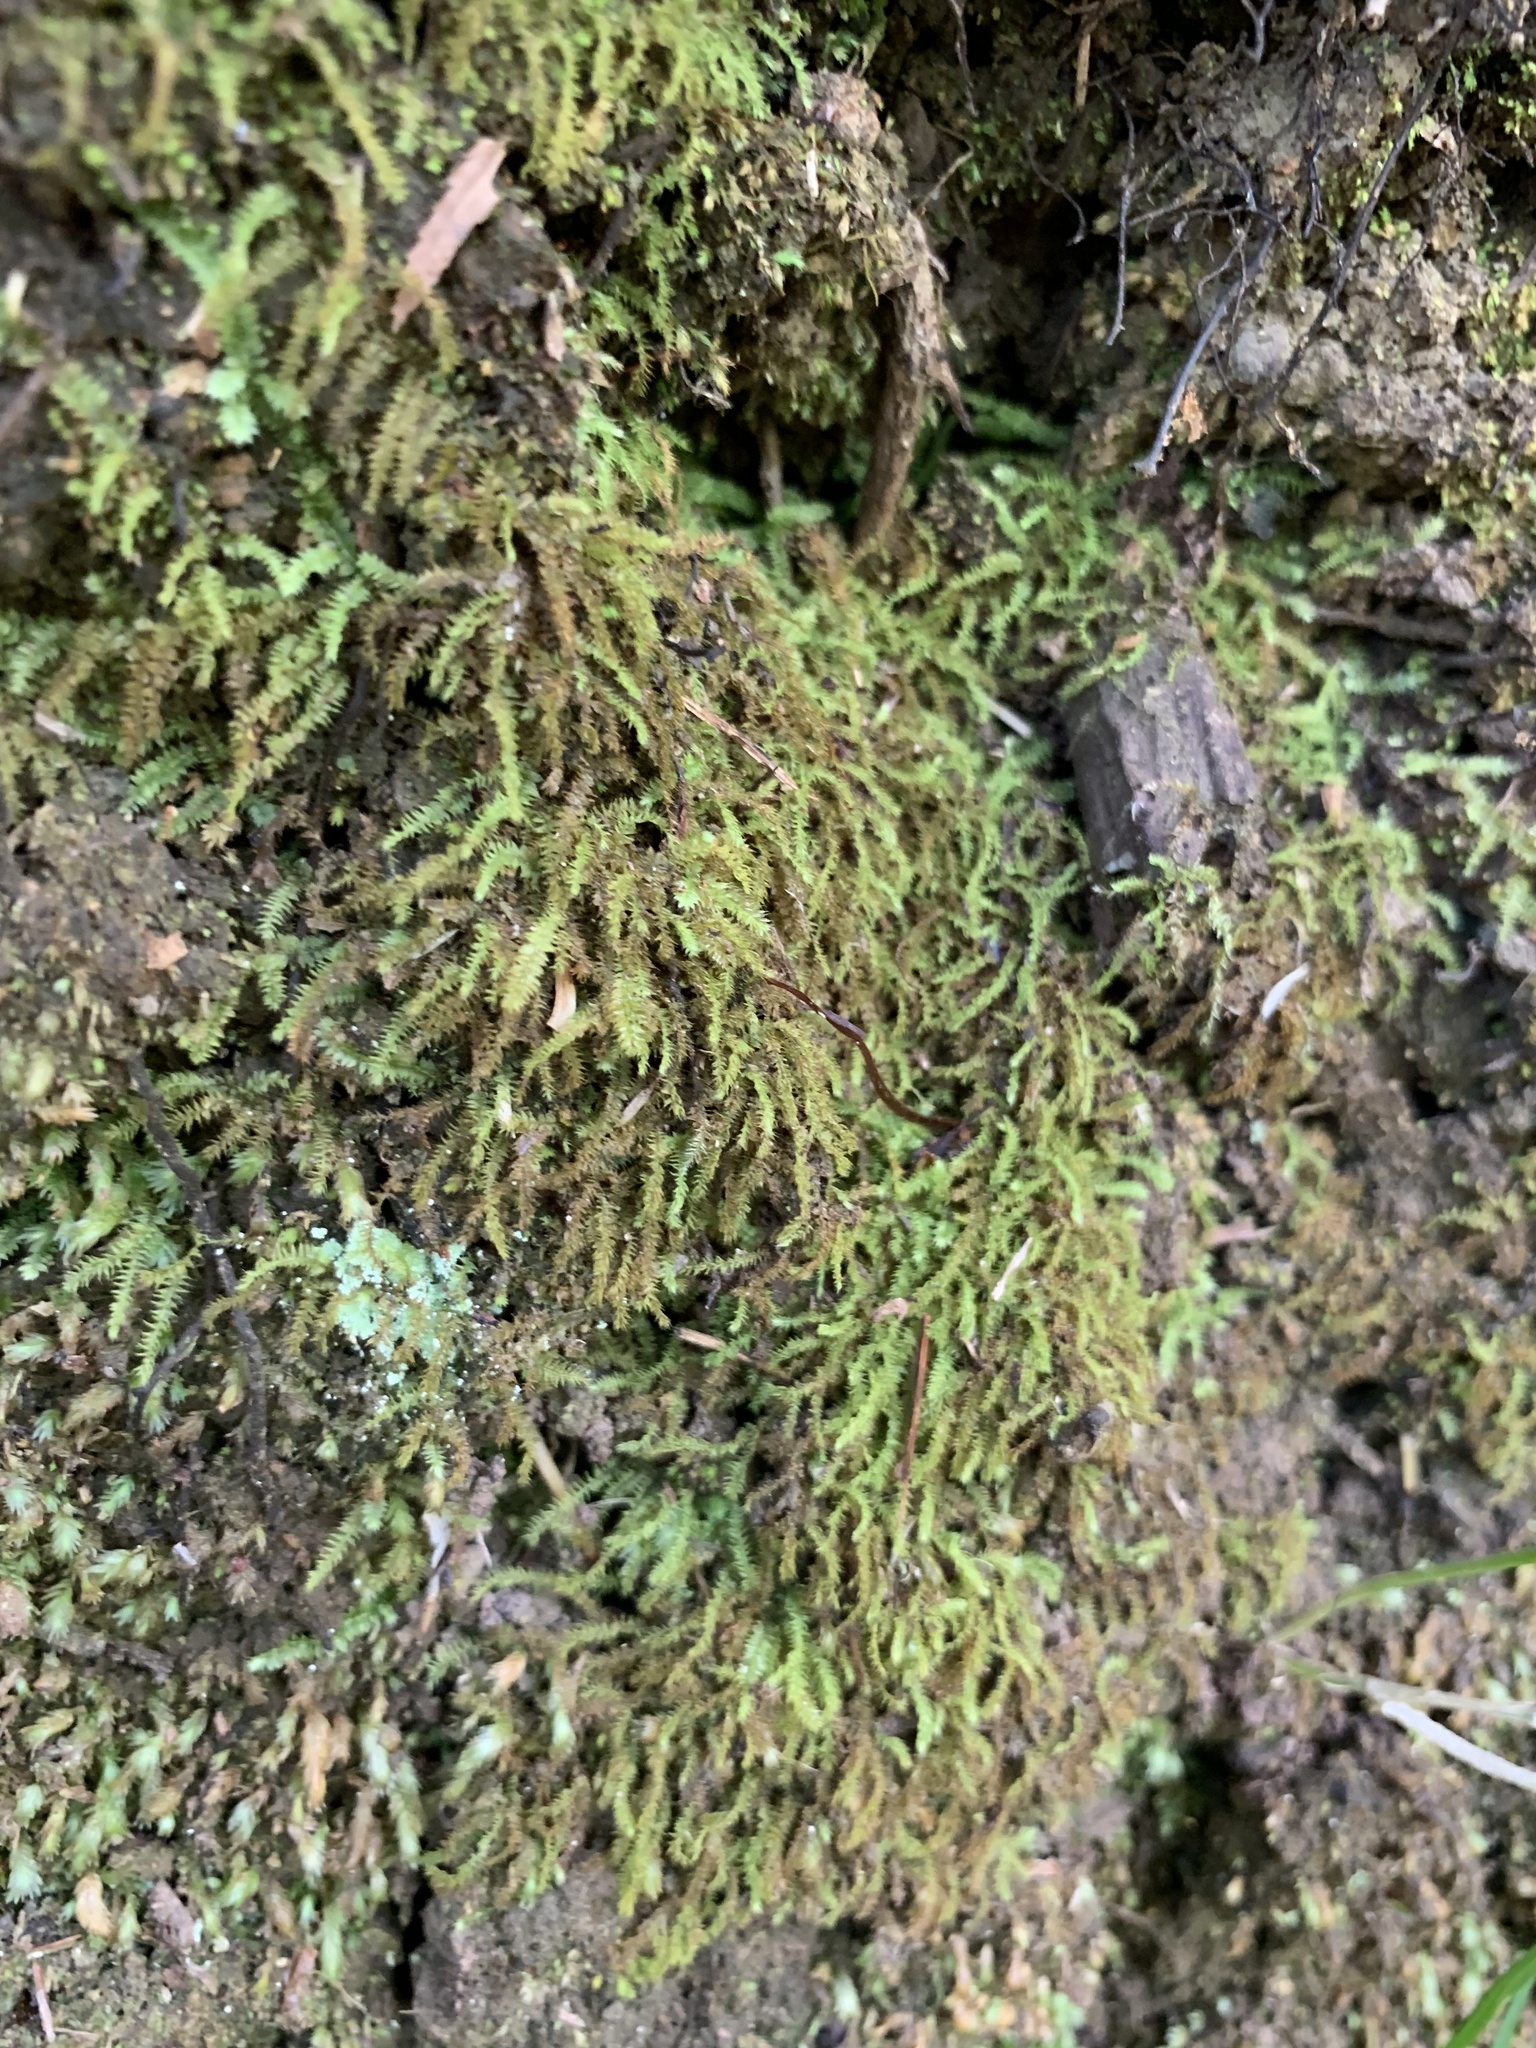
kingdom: Plantae
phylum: Bryophyta
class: Bryopsida
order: Hypnodendrales
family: Racopilaceae
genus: Racopilum
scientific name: Racopilum cuspidigerum
